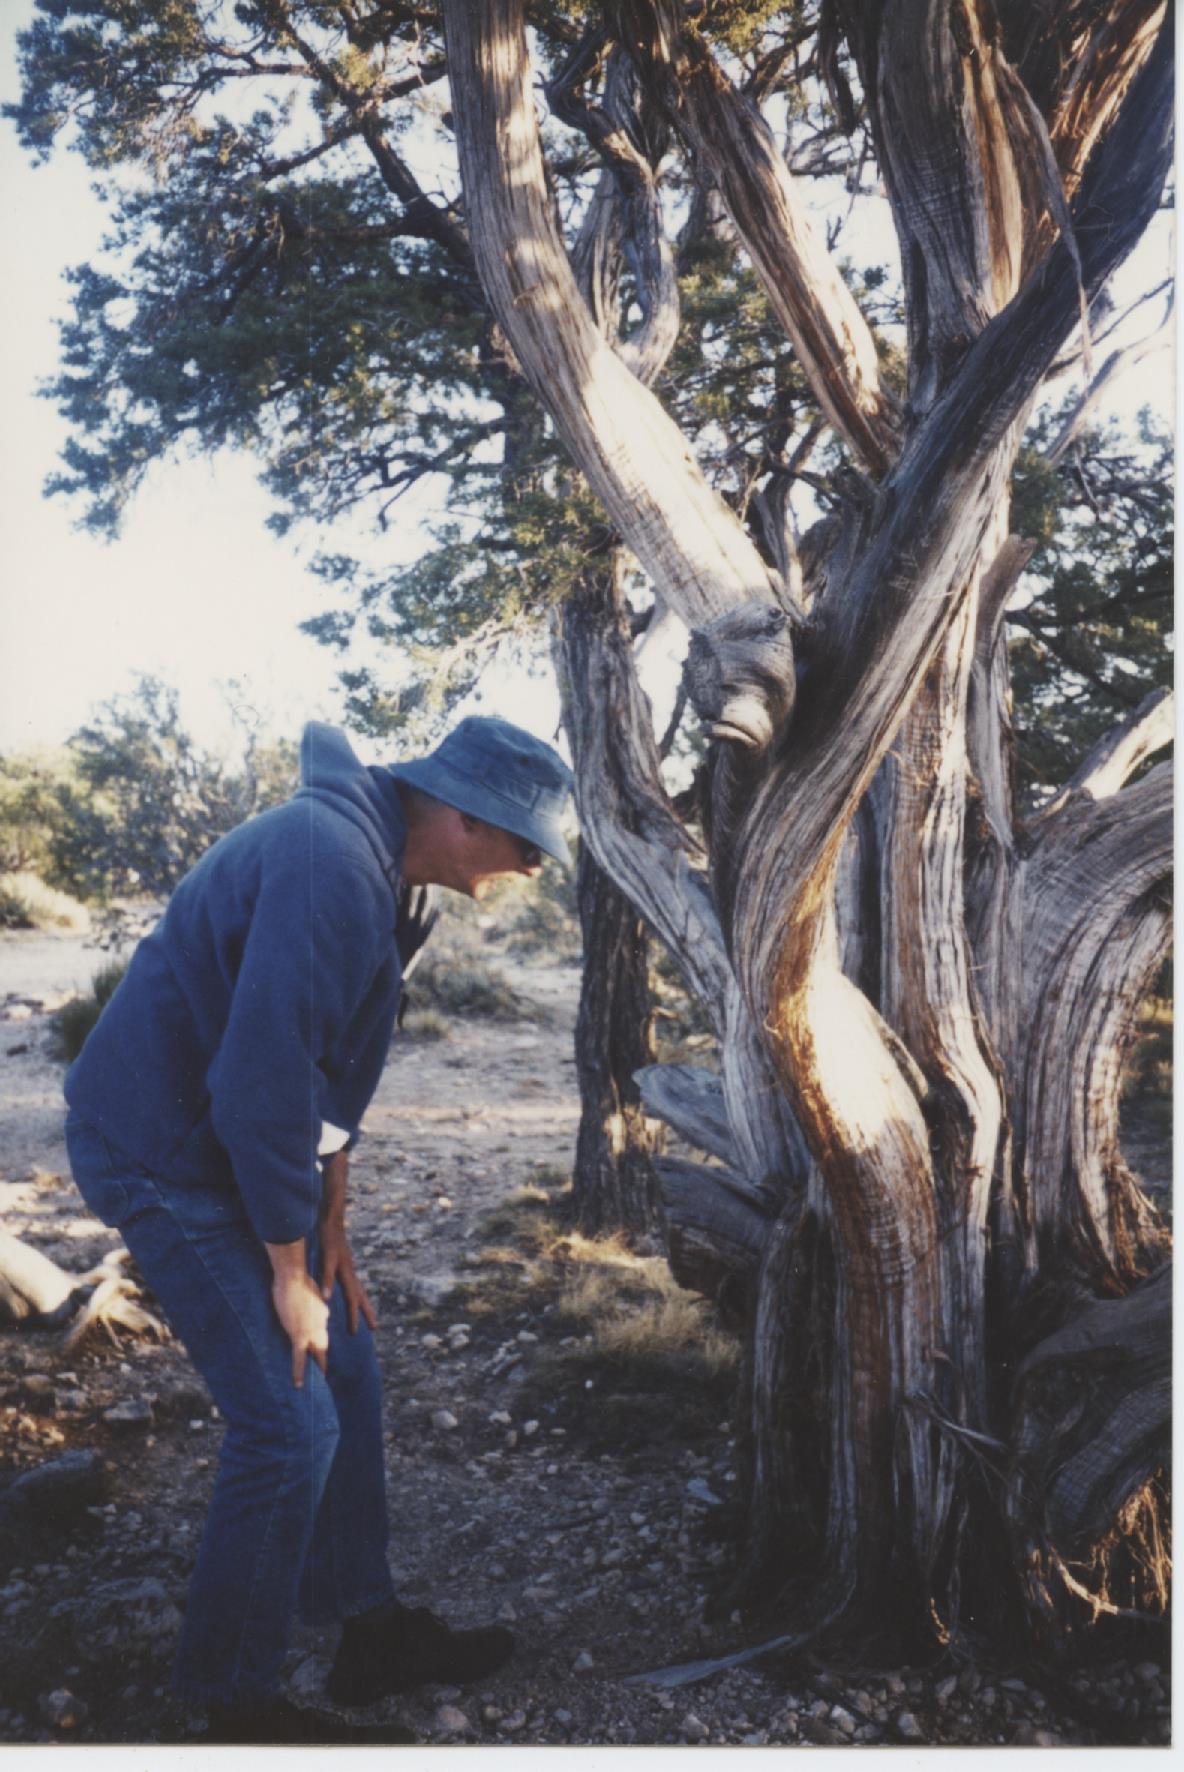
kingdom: Plantae
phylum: Tracheophyta
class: Pinopsida
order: Pinales
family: Cupressaceae
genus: Juniperus
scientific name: Juniperus osteosperma
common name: Utah juniper
